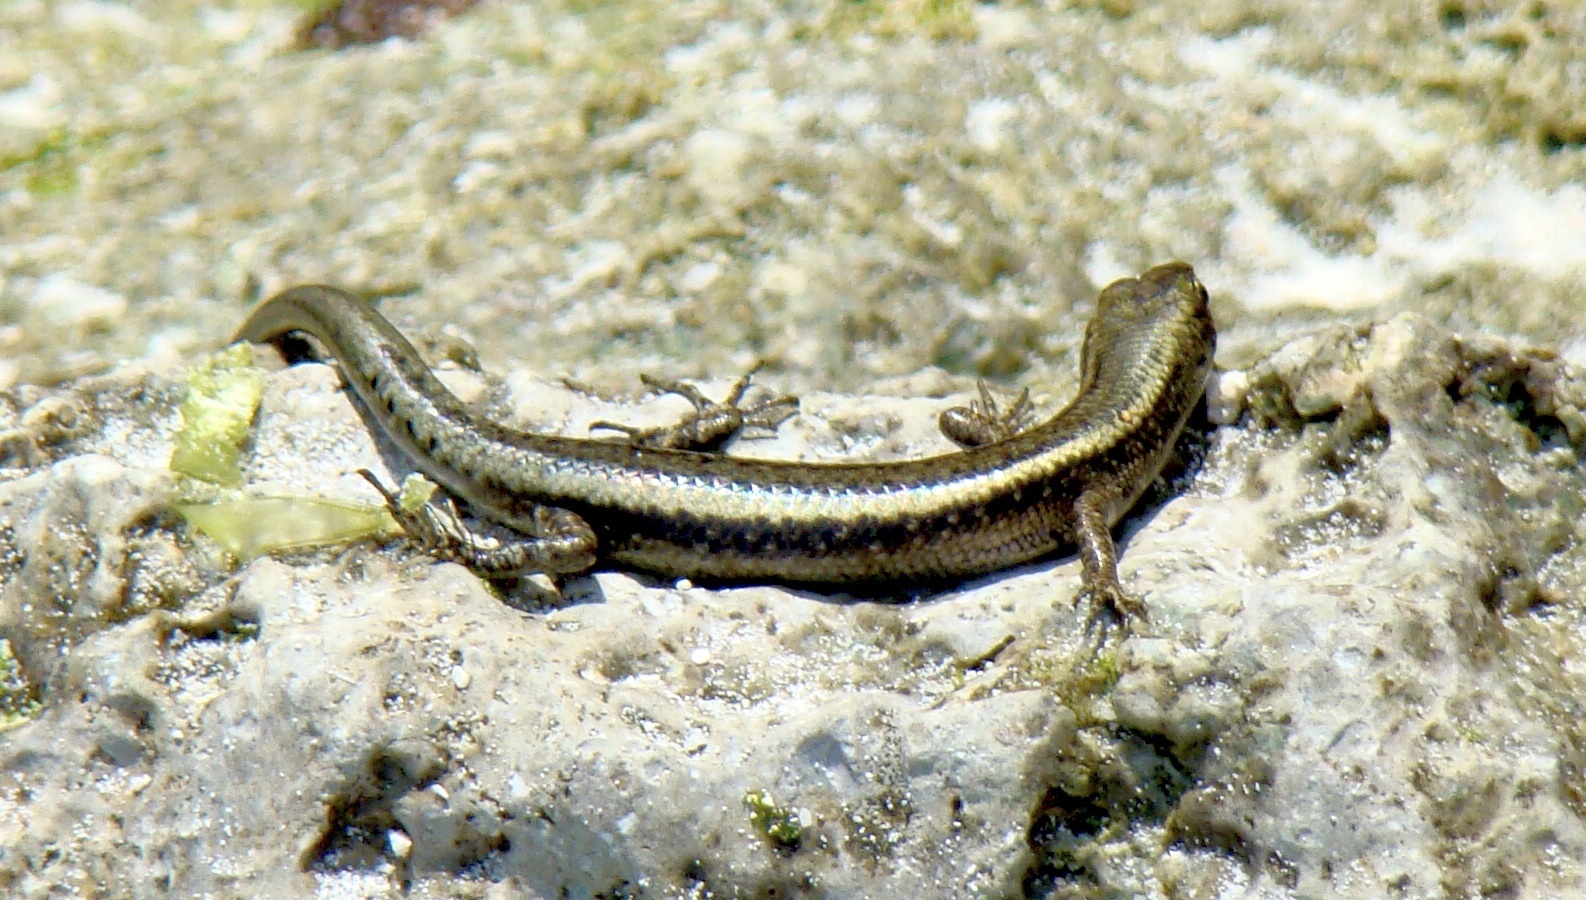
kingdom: Animalia
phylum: Chordata
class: Squamata
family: Scincidae
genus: Cryptoblepharus
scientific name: Cryptoblepharus africanus
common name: African coral rag skink
